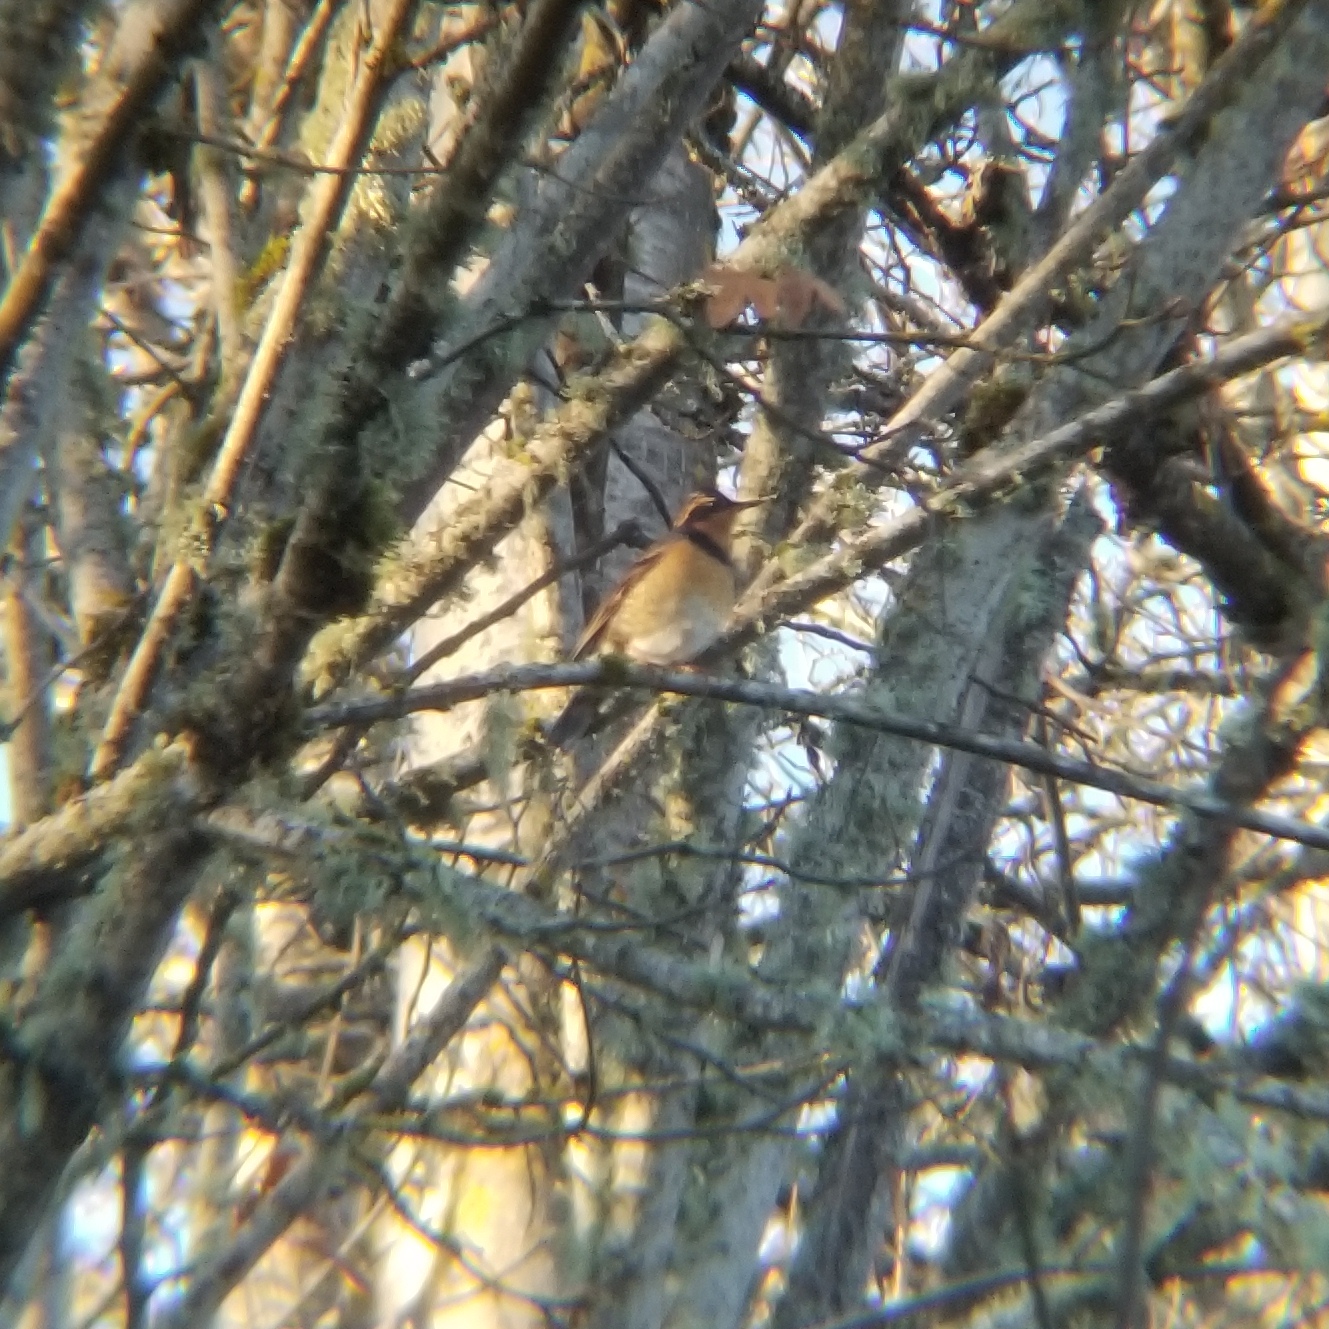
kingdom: Animalia
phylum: Chordata
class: Aves
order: Passeriformes
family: Turdidae
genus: Ixoreus
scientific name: Ixoreus naevius
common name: Varied thrush
